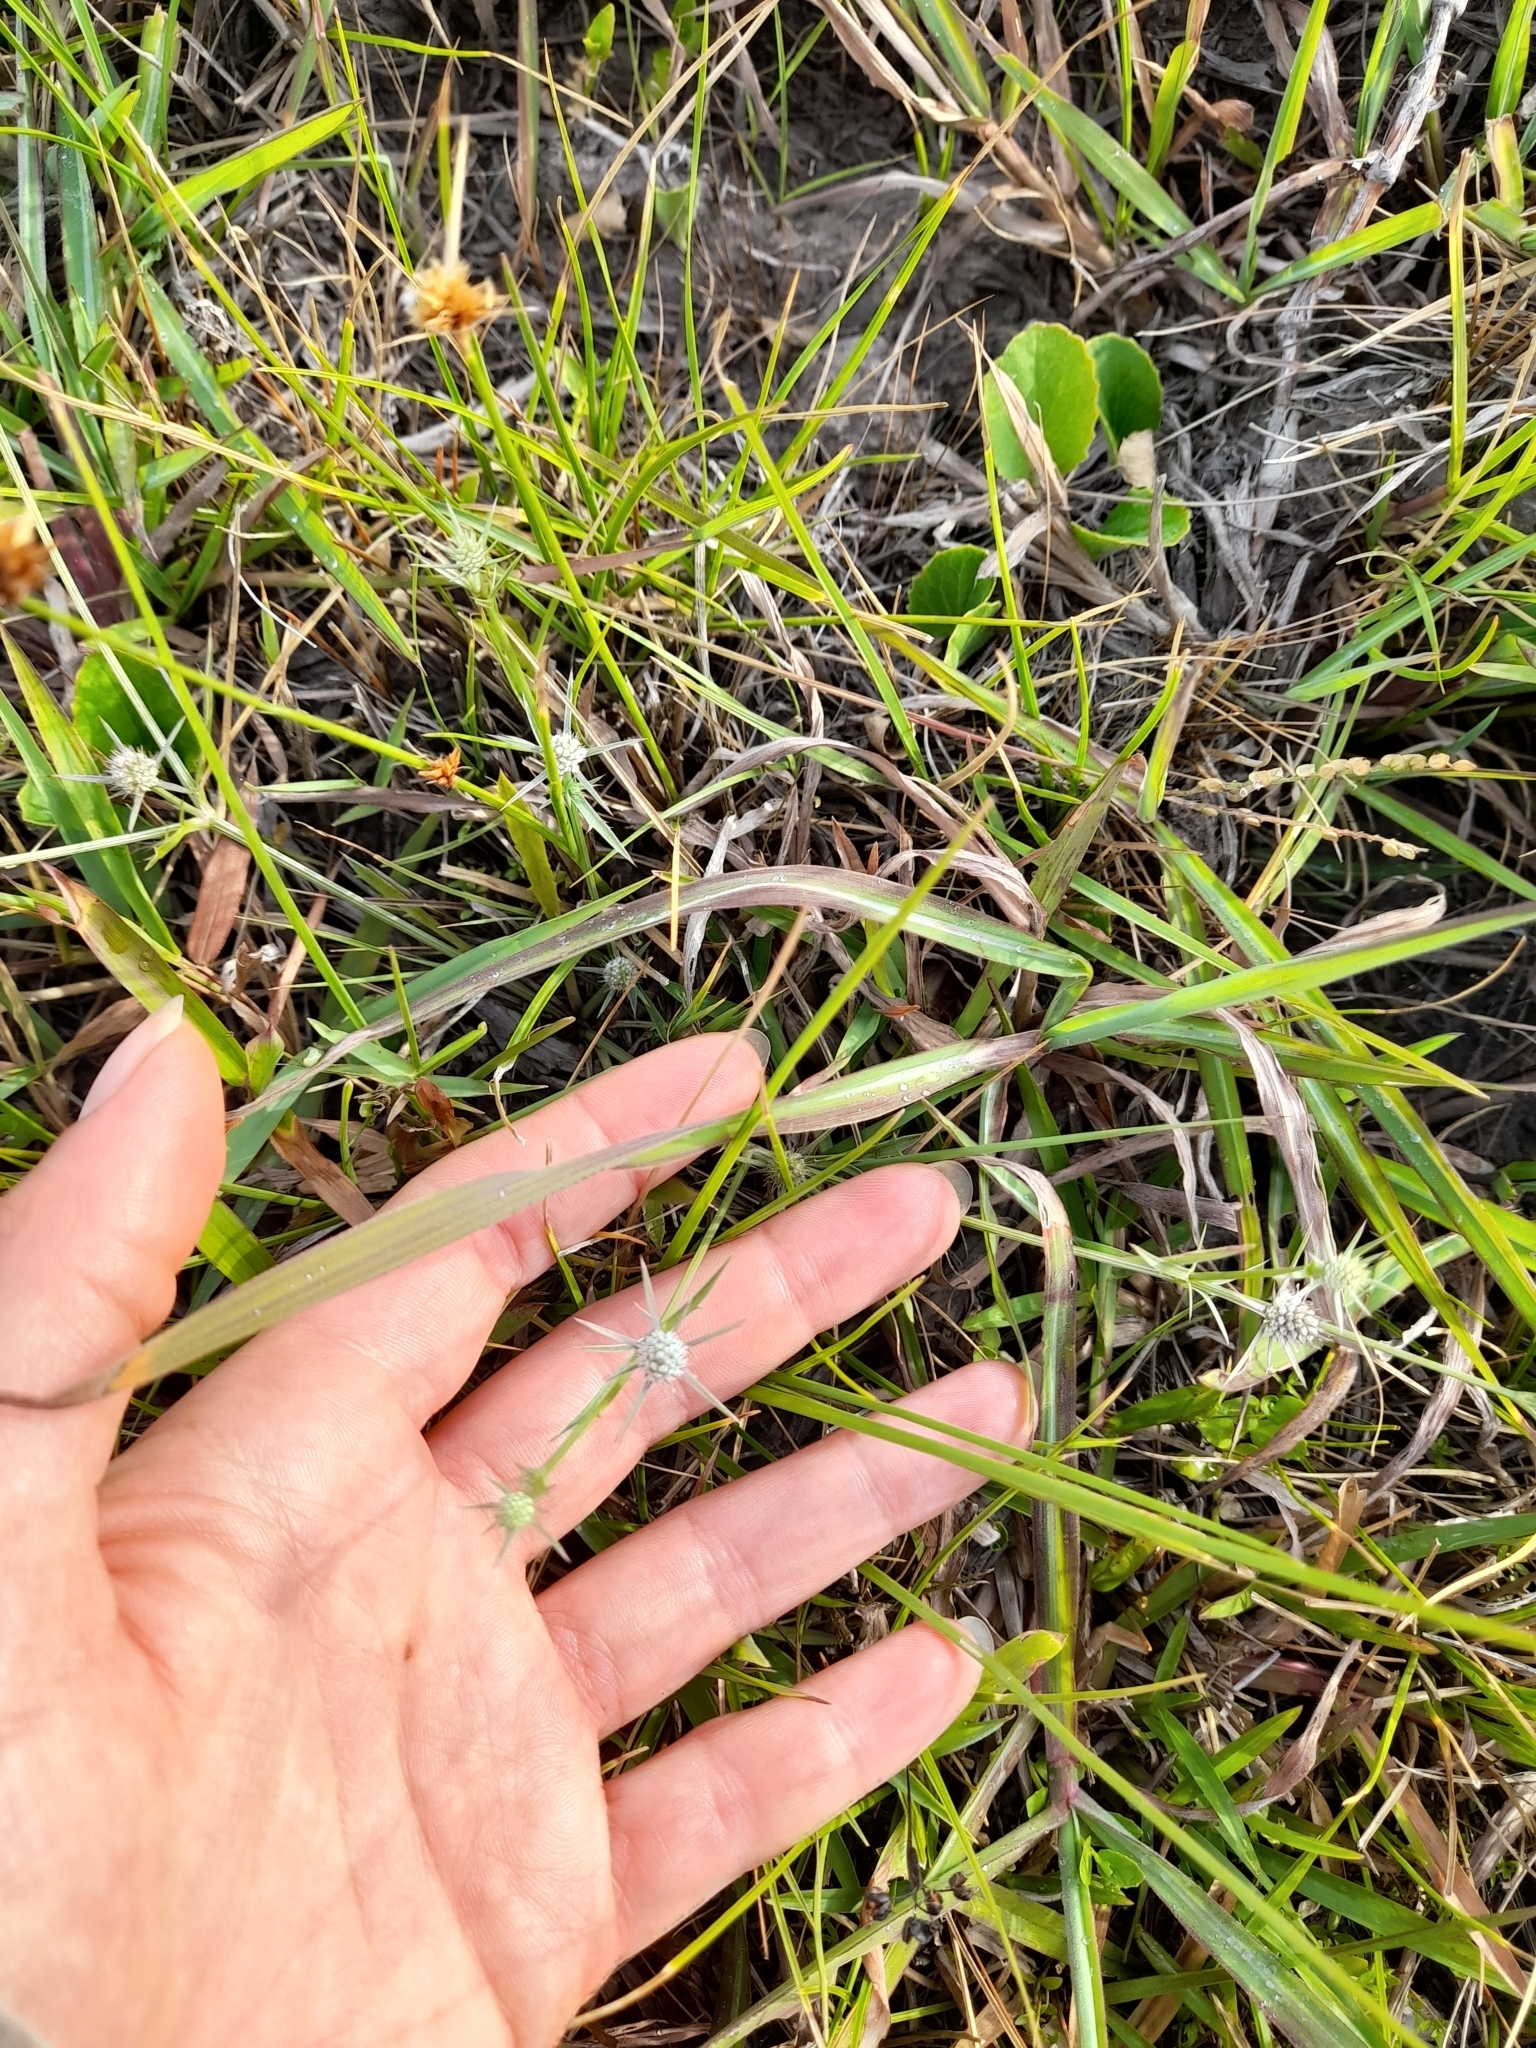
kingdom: Plantae
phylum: Tracheophyta
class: Magnoliopsida
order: Apiales
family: Apiaceae
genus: Eryngium
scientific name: Eryngium echinatum
